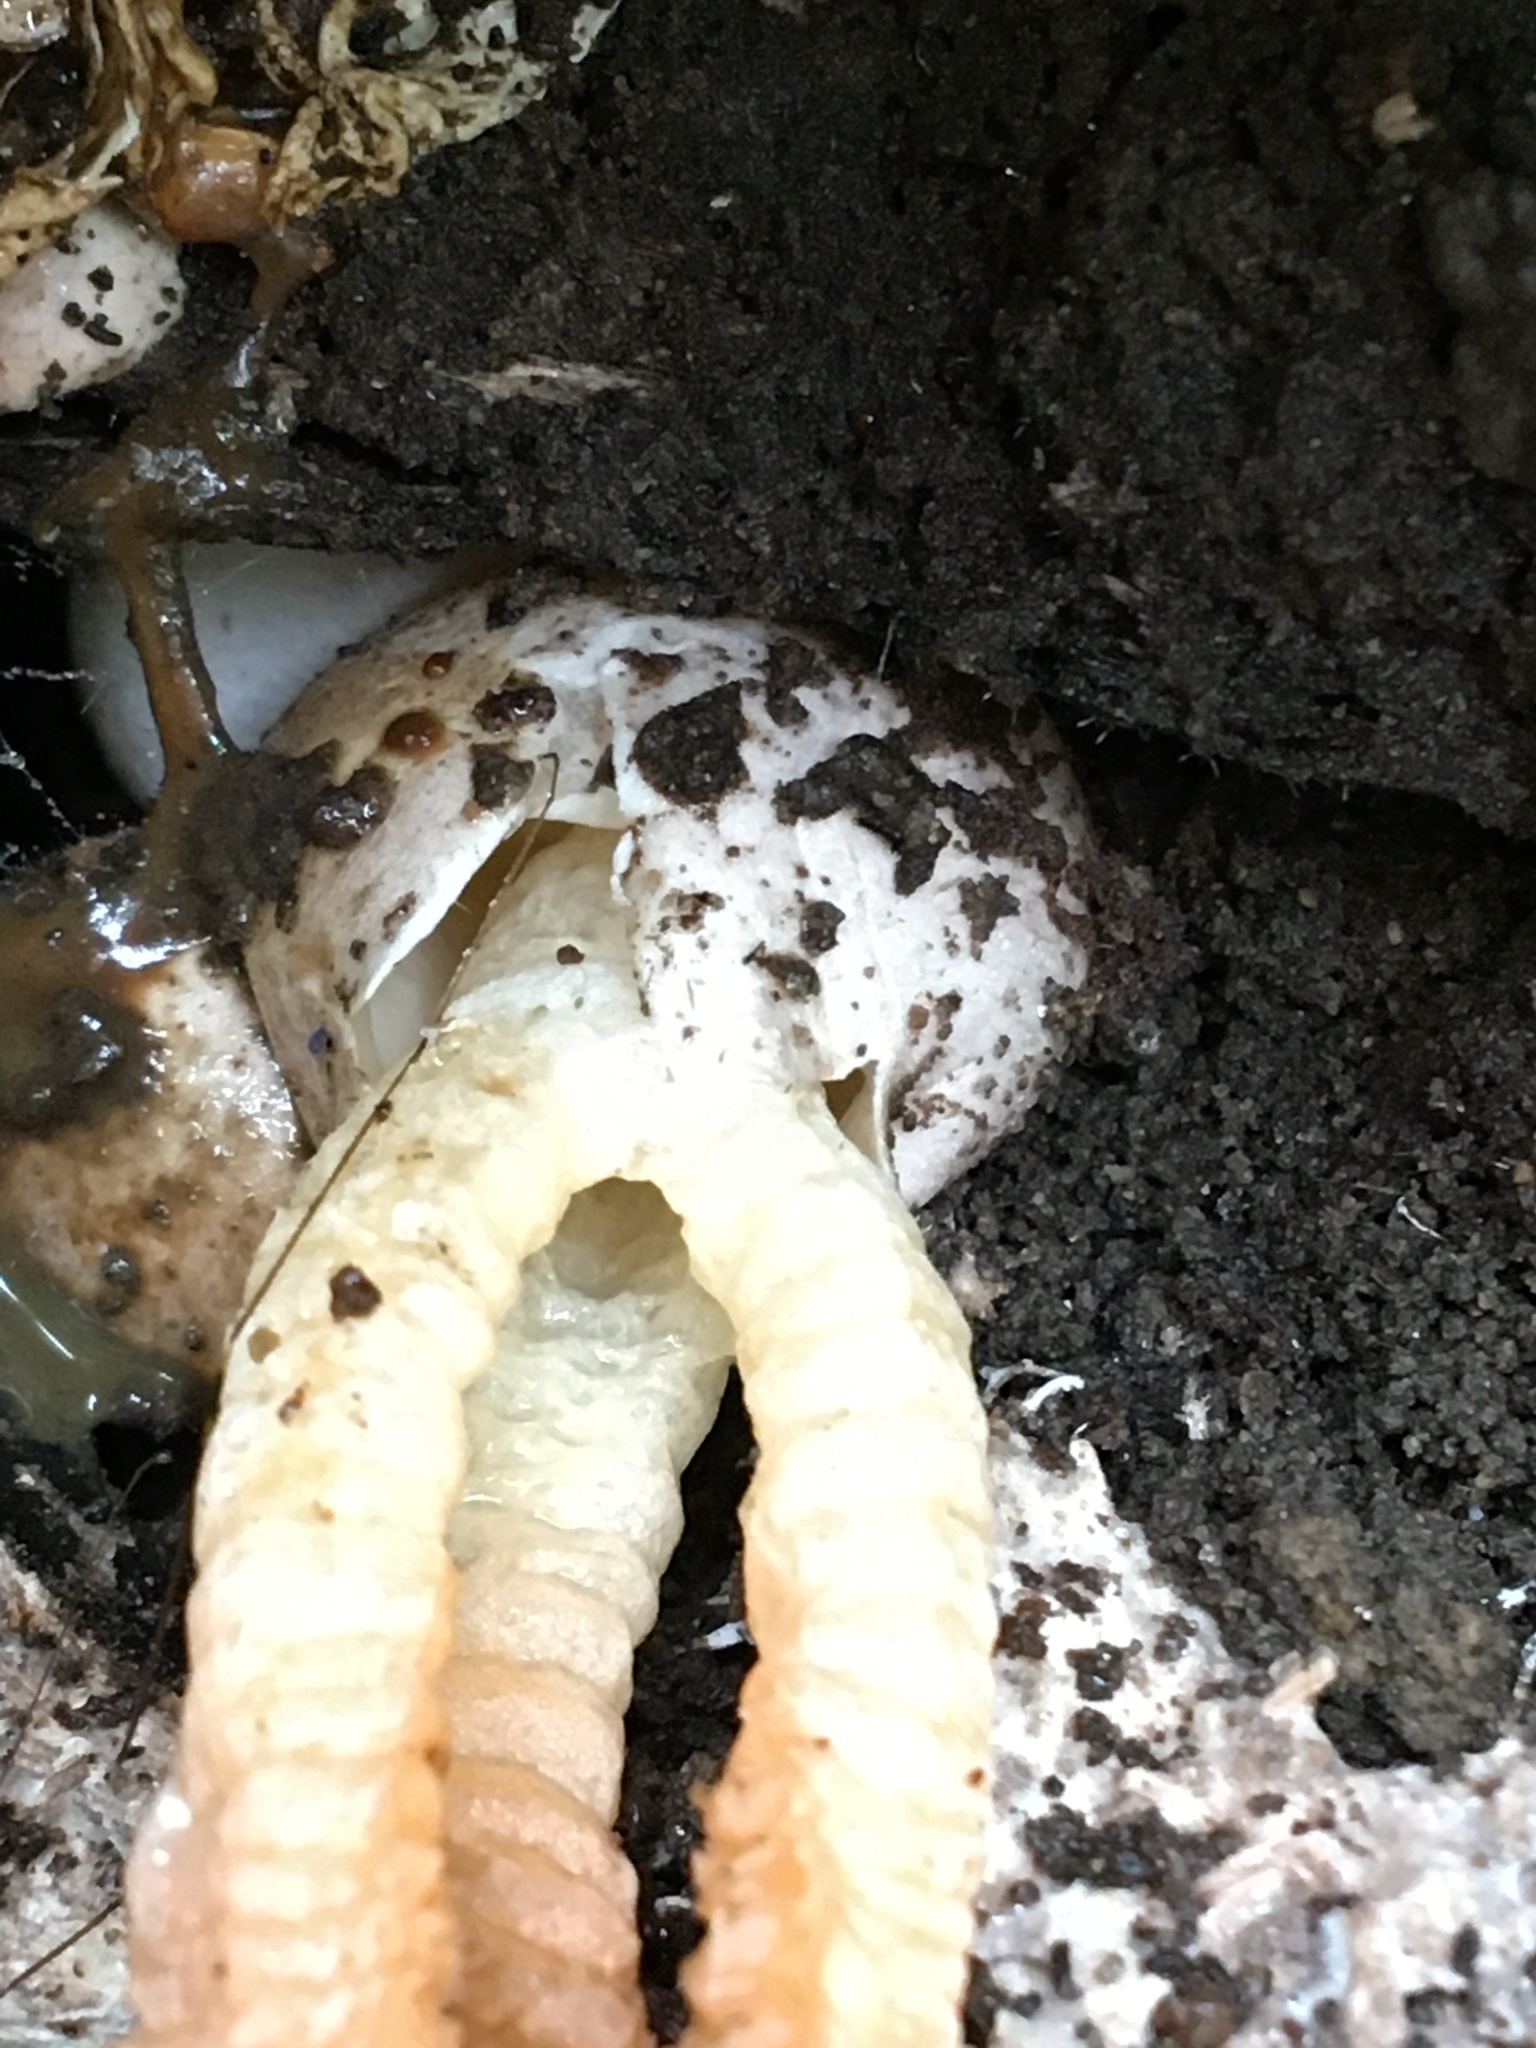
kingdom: Fungi
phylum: Basidiomycota
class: Agaricomycetes
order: Phallales
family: Phallaceae
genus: Pseudocolus
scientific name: Pseudocolus fusiformis
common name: Stinky squid
